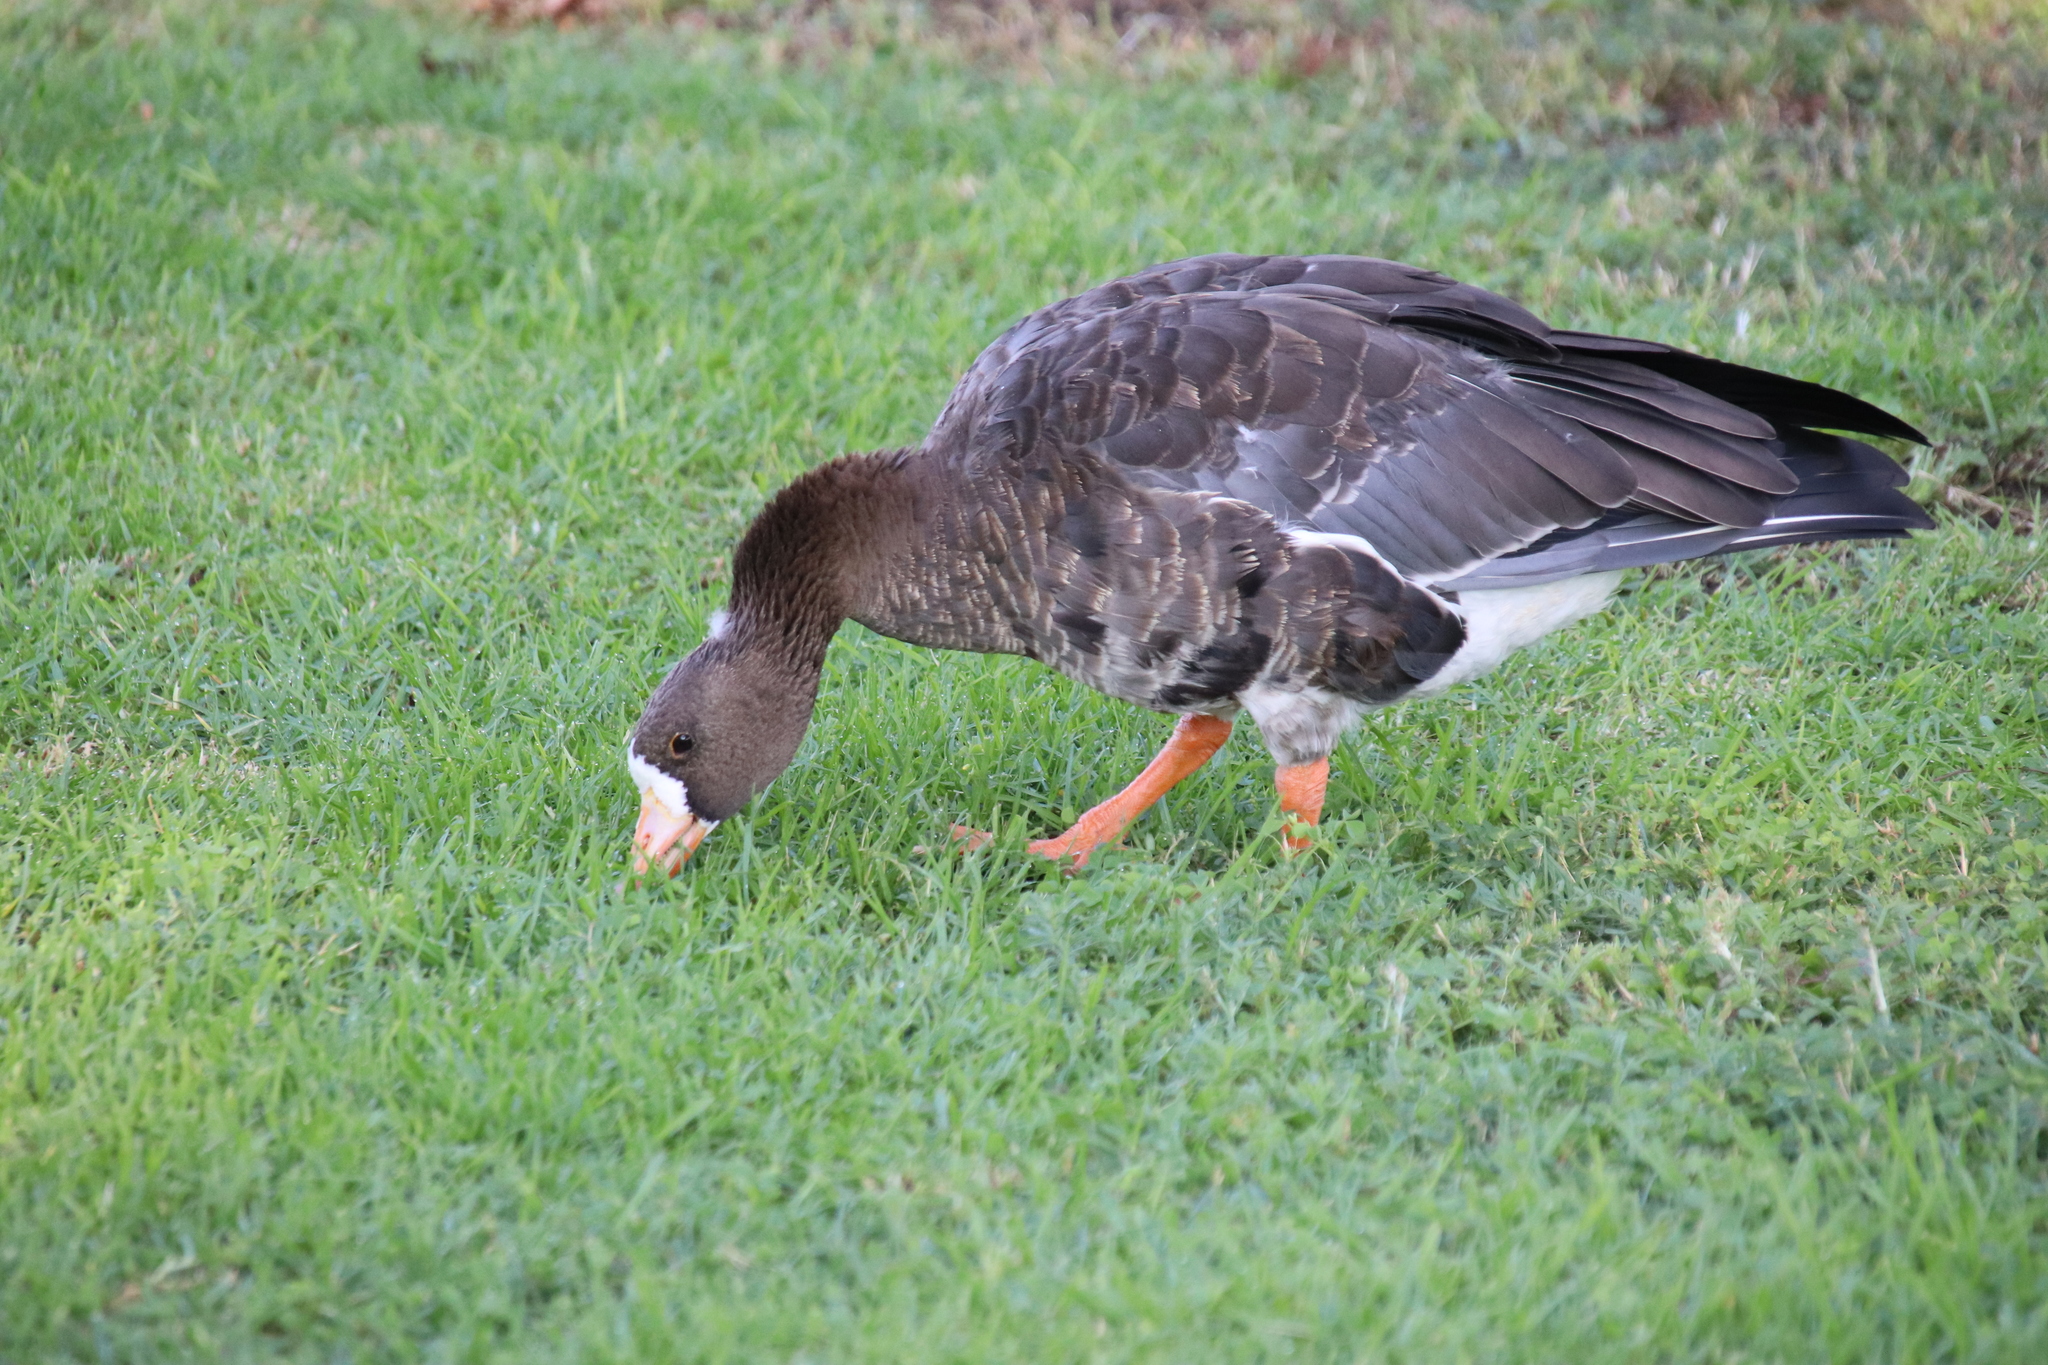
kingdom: Animalia
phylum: Chordata
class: Aves
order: Anseriformes
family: Anatidae
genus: Anser
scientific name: Anser albifrons
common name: Greater white-fronted goose
